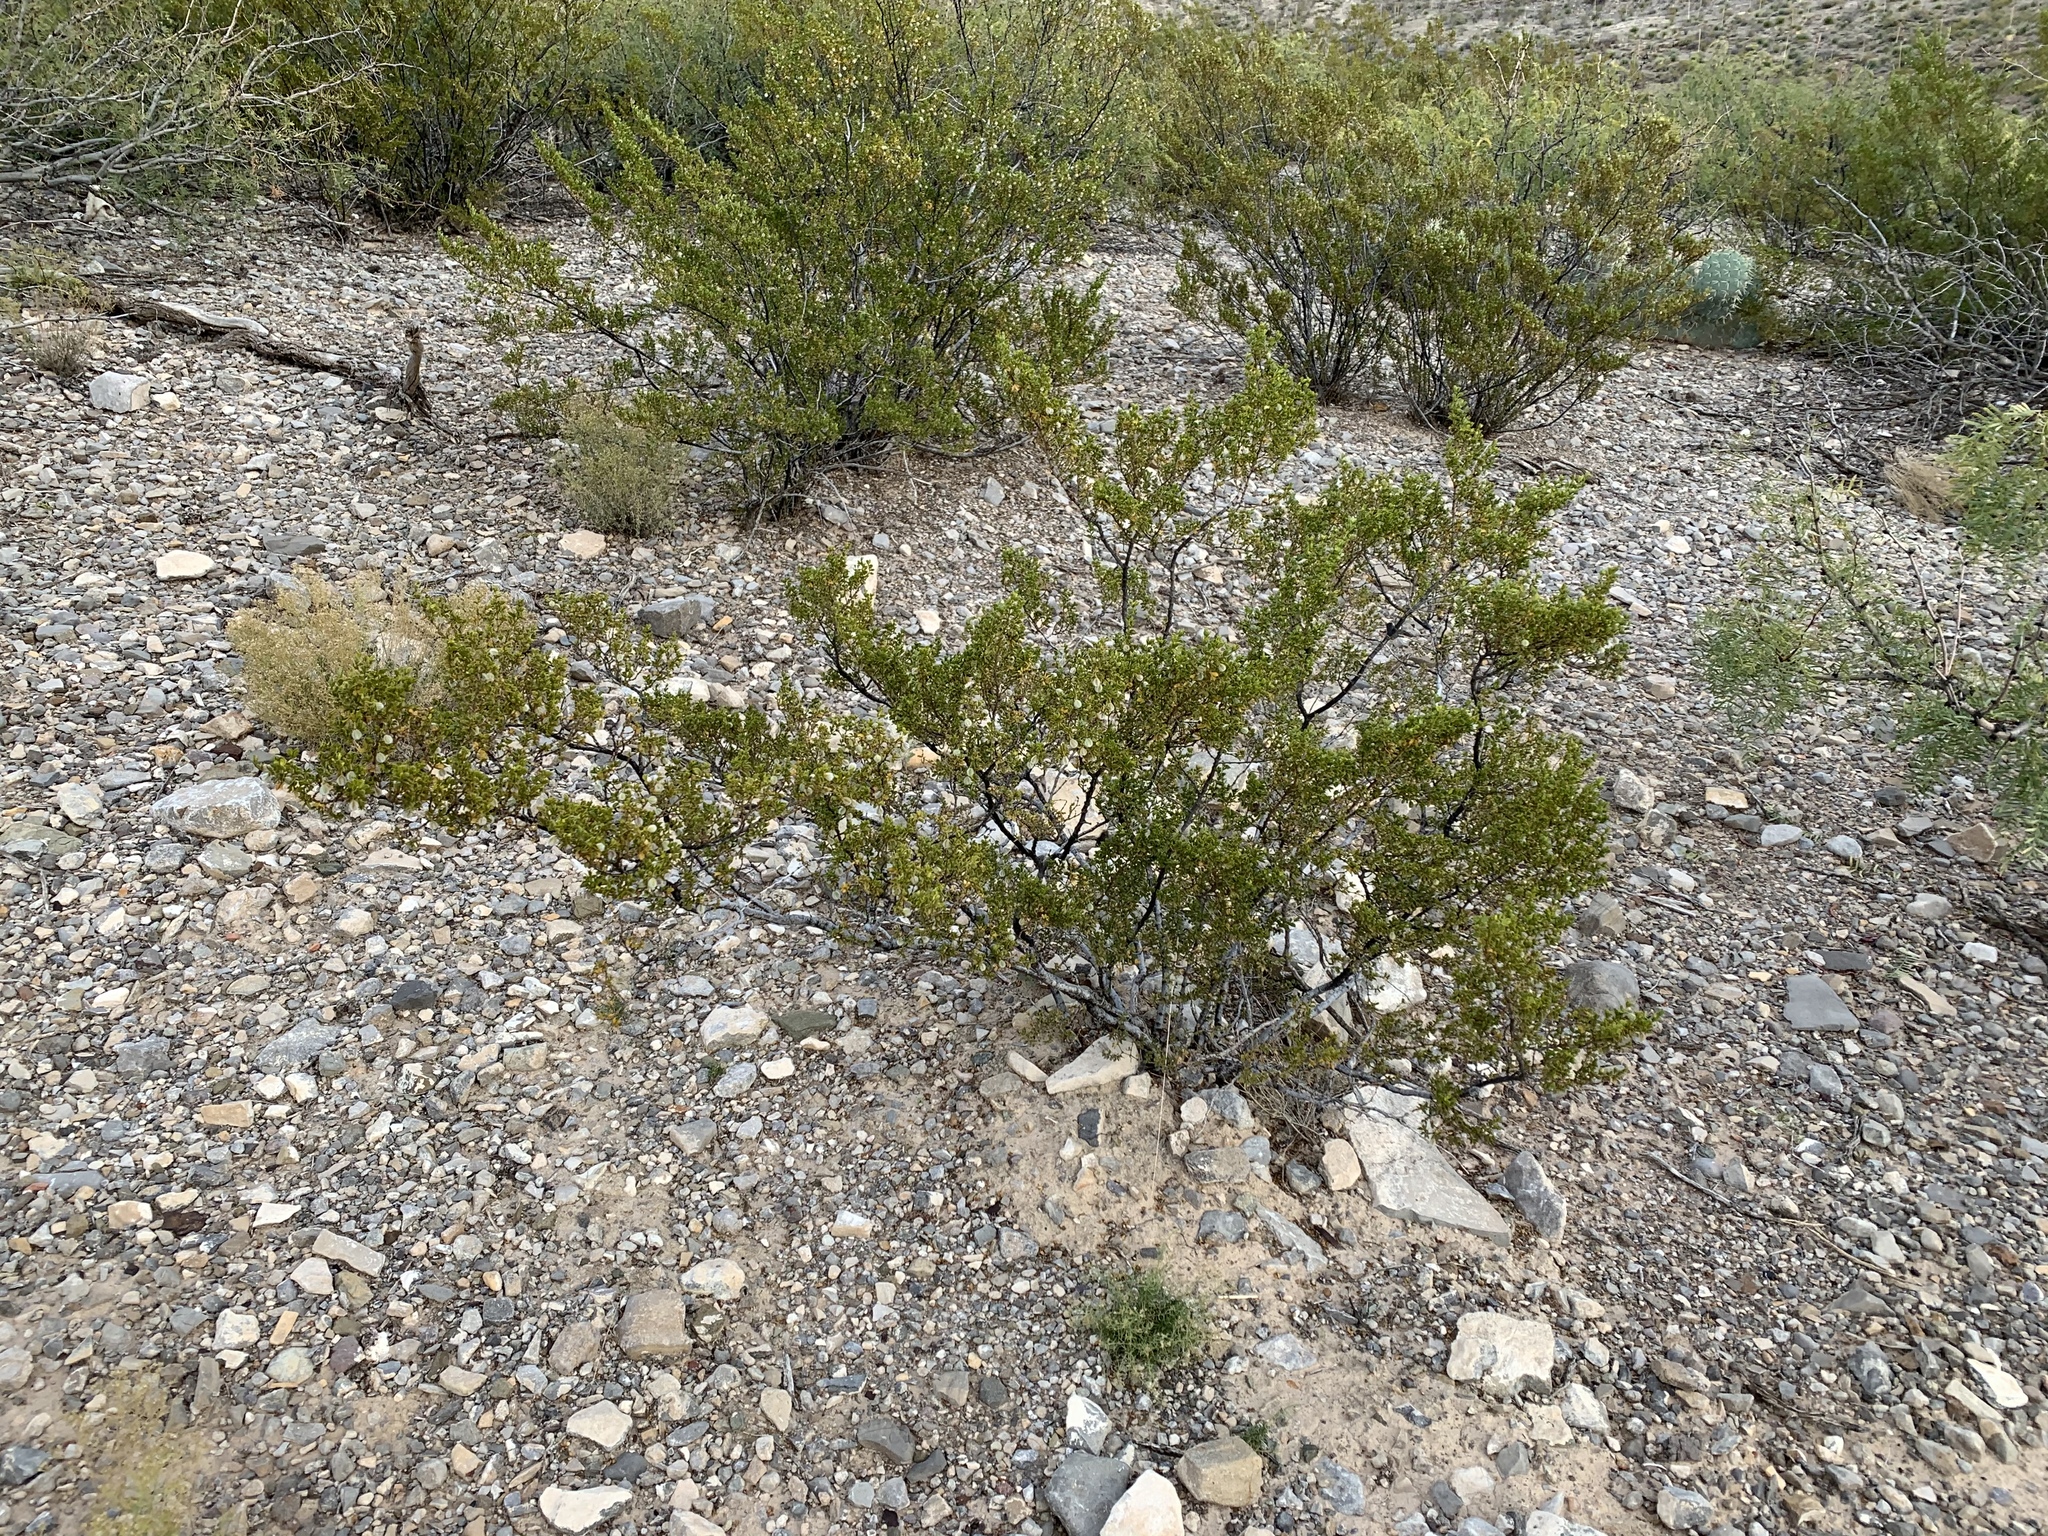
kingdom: Plantae
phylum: Tracheophyta
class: Magnoliopsida
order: Zygophyllales
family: Zygophyllaceae
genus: Larrea
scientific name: Larrea tridentata
